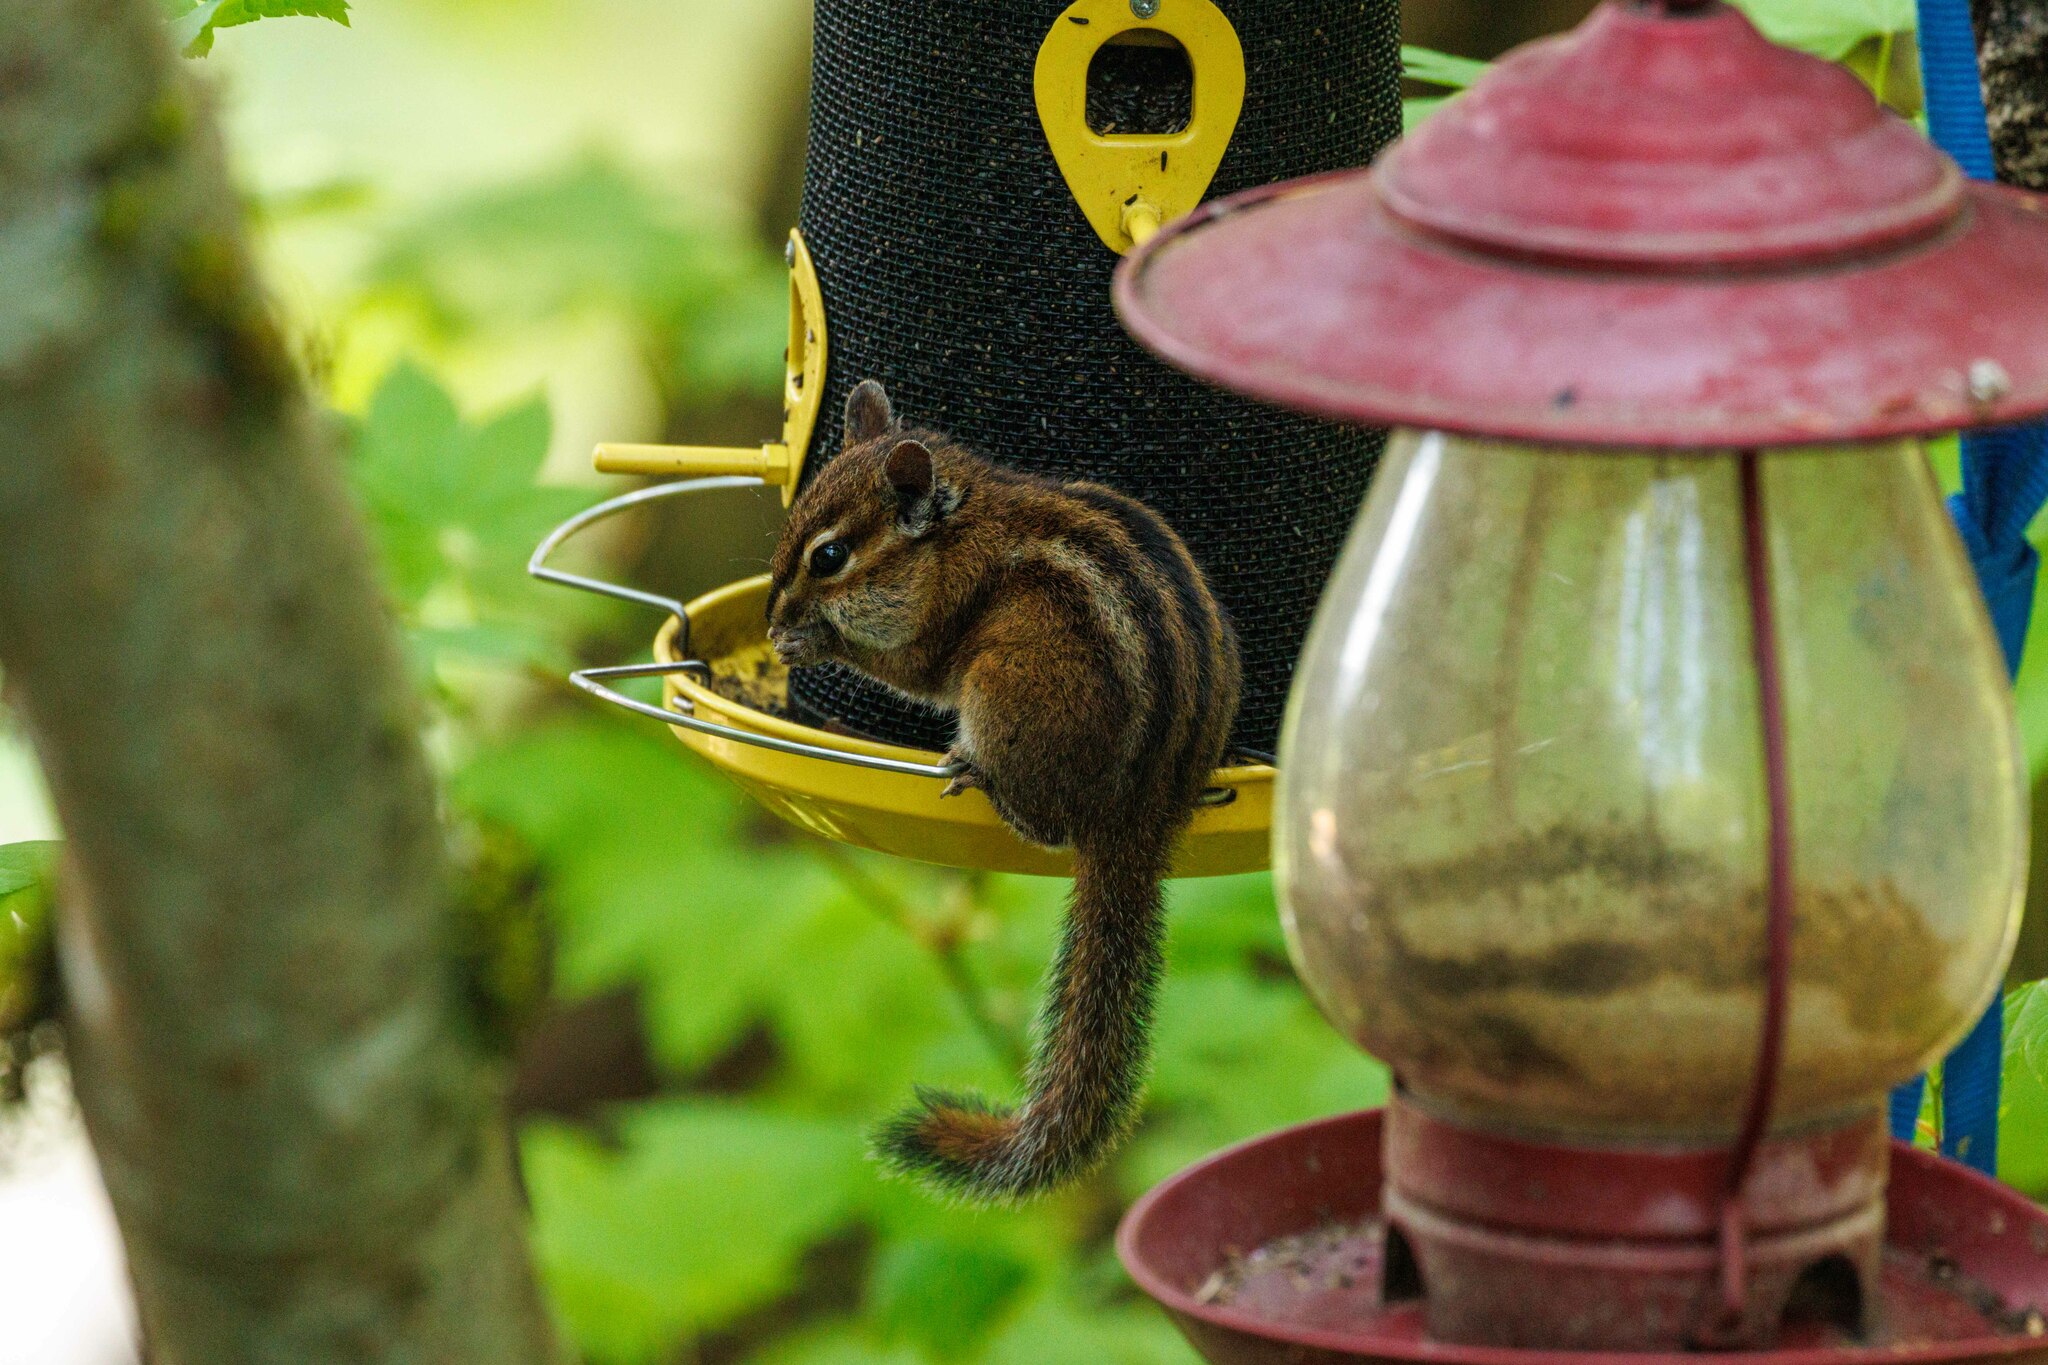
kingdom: Animalia
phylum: Chordata
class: Mammalia
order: Rodentia
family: Sciuridae
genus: Tamias
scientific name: Tamias townsendii
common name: Townsend's chipmunk
